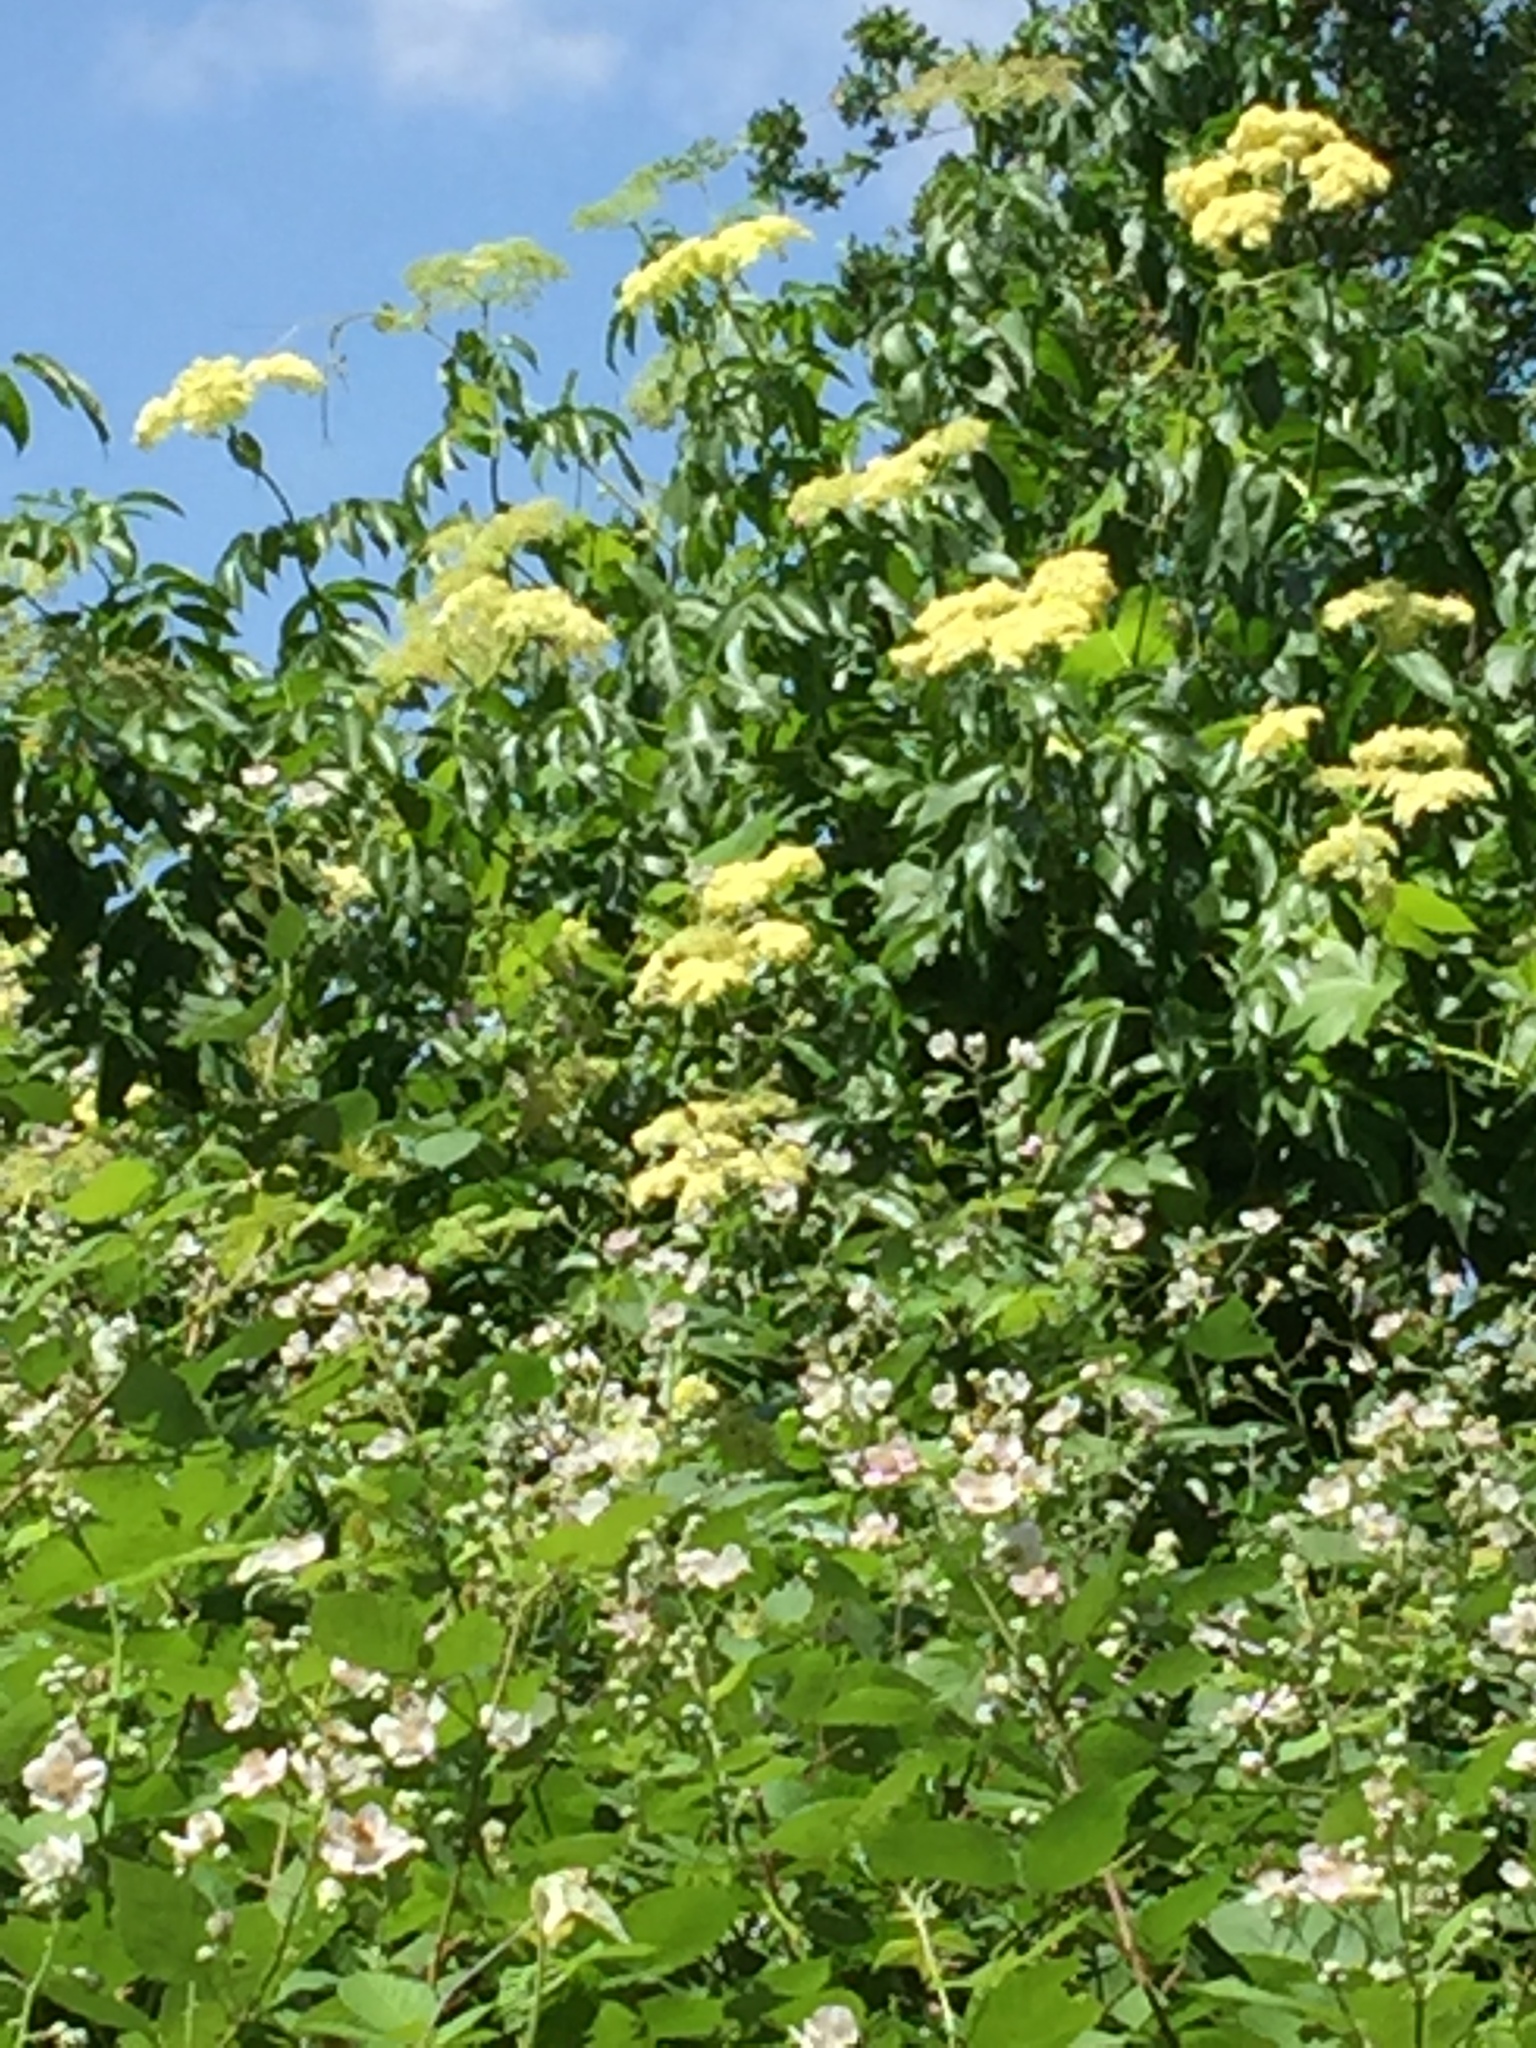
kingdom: Plantae
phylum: Tracheophyta
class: Magnoliopsida
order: Dipsacales
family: Viburnaceae
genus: Sambucus
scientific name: Sambucus cerulea
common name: Blue elder
